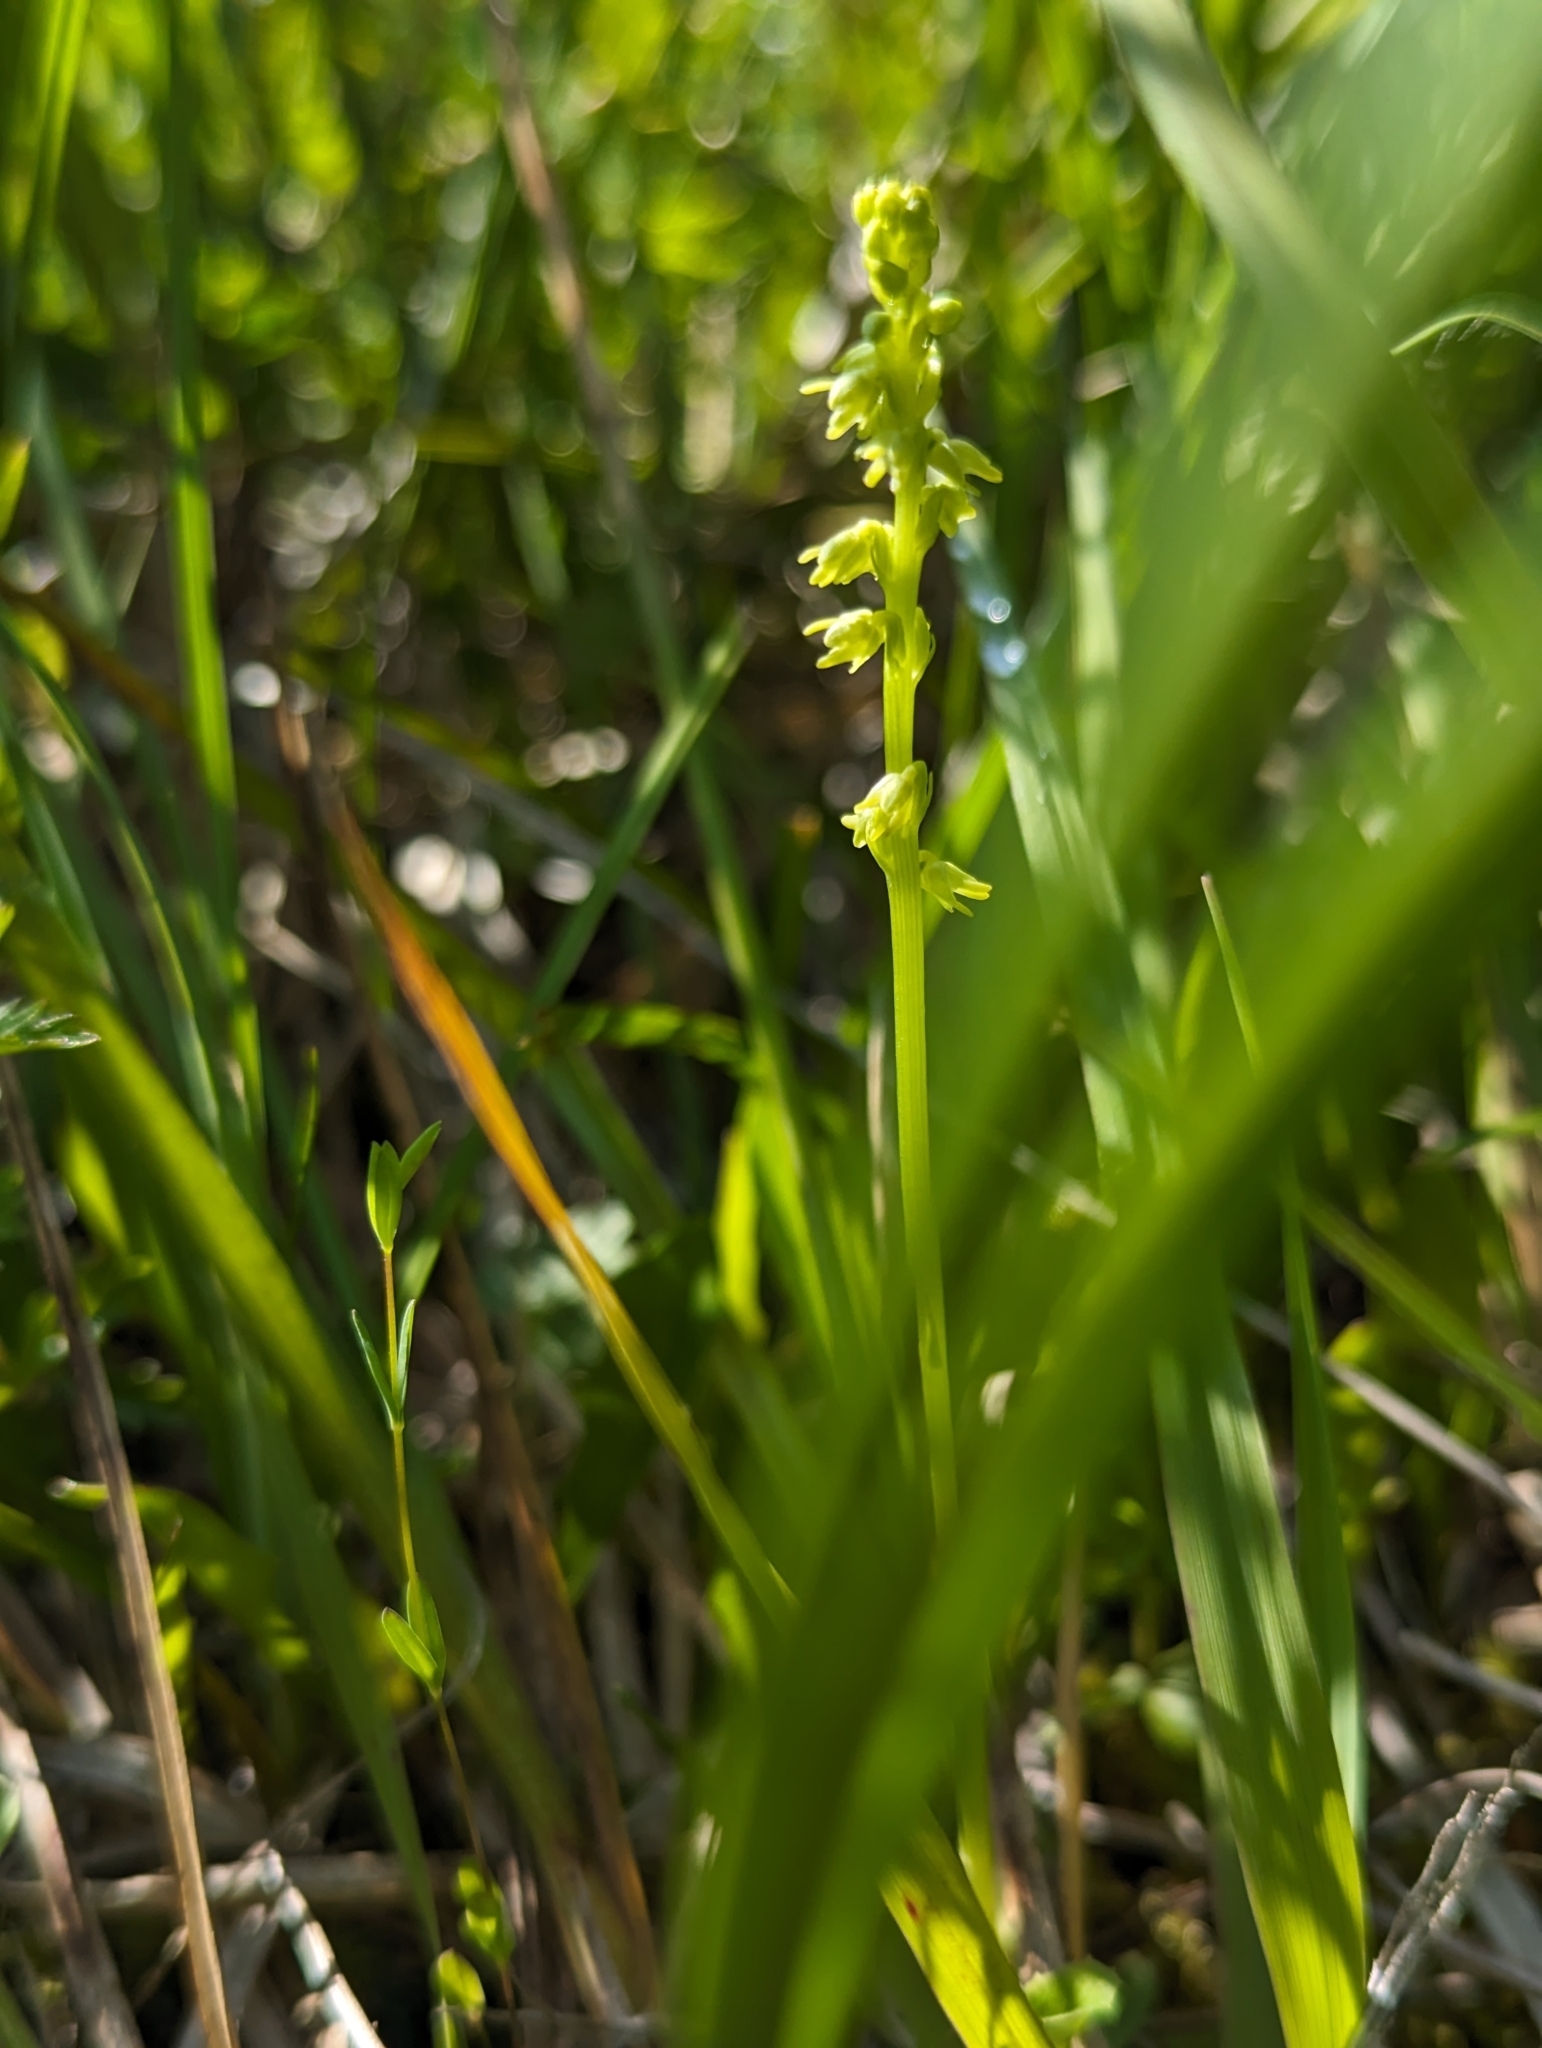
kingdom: Plantae
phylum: Tracheophyta
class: Liliopsida
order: Asparagales
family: Orchidaceae
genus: Herminium
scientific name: Herminium monorchis
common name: Musk orchid
